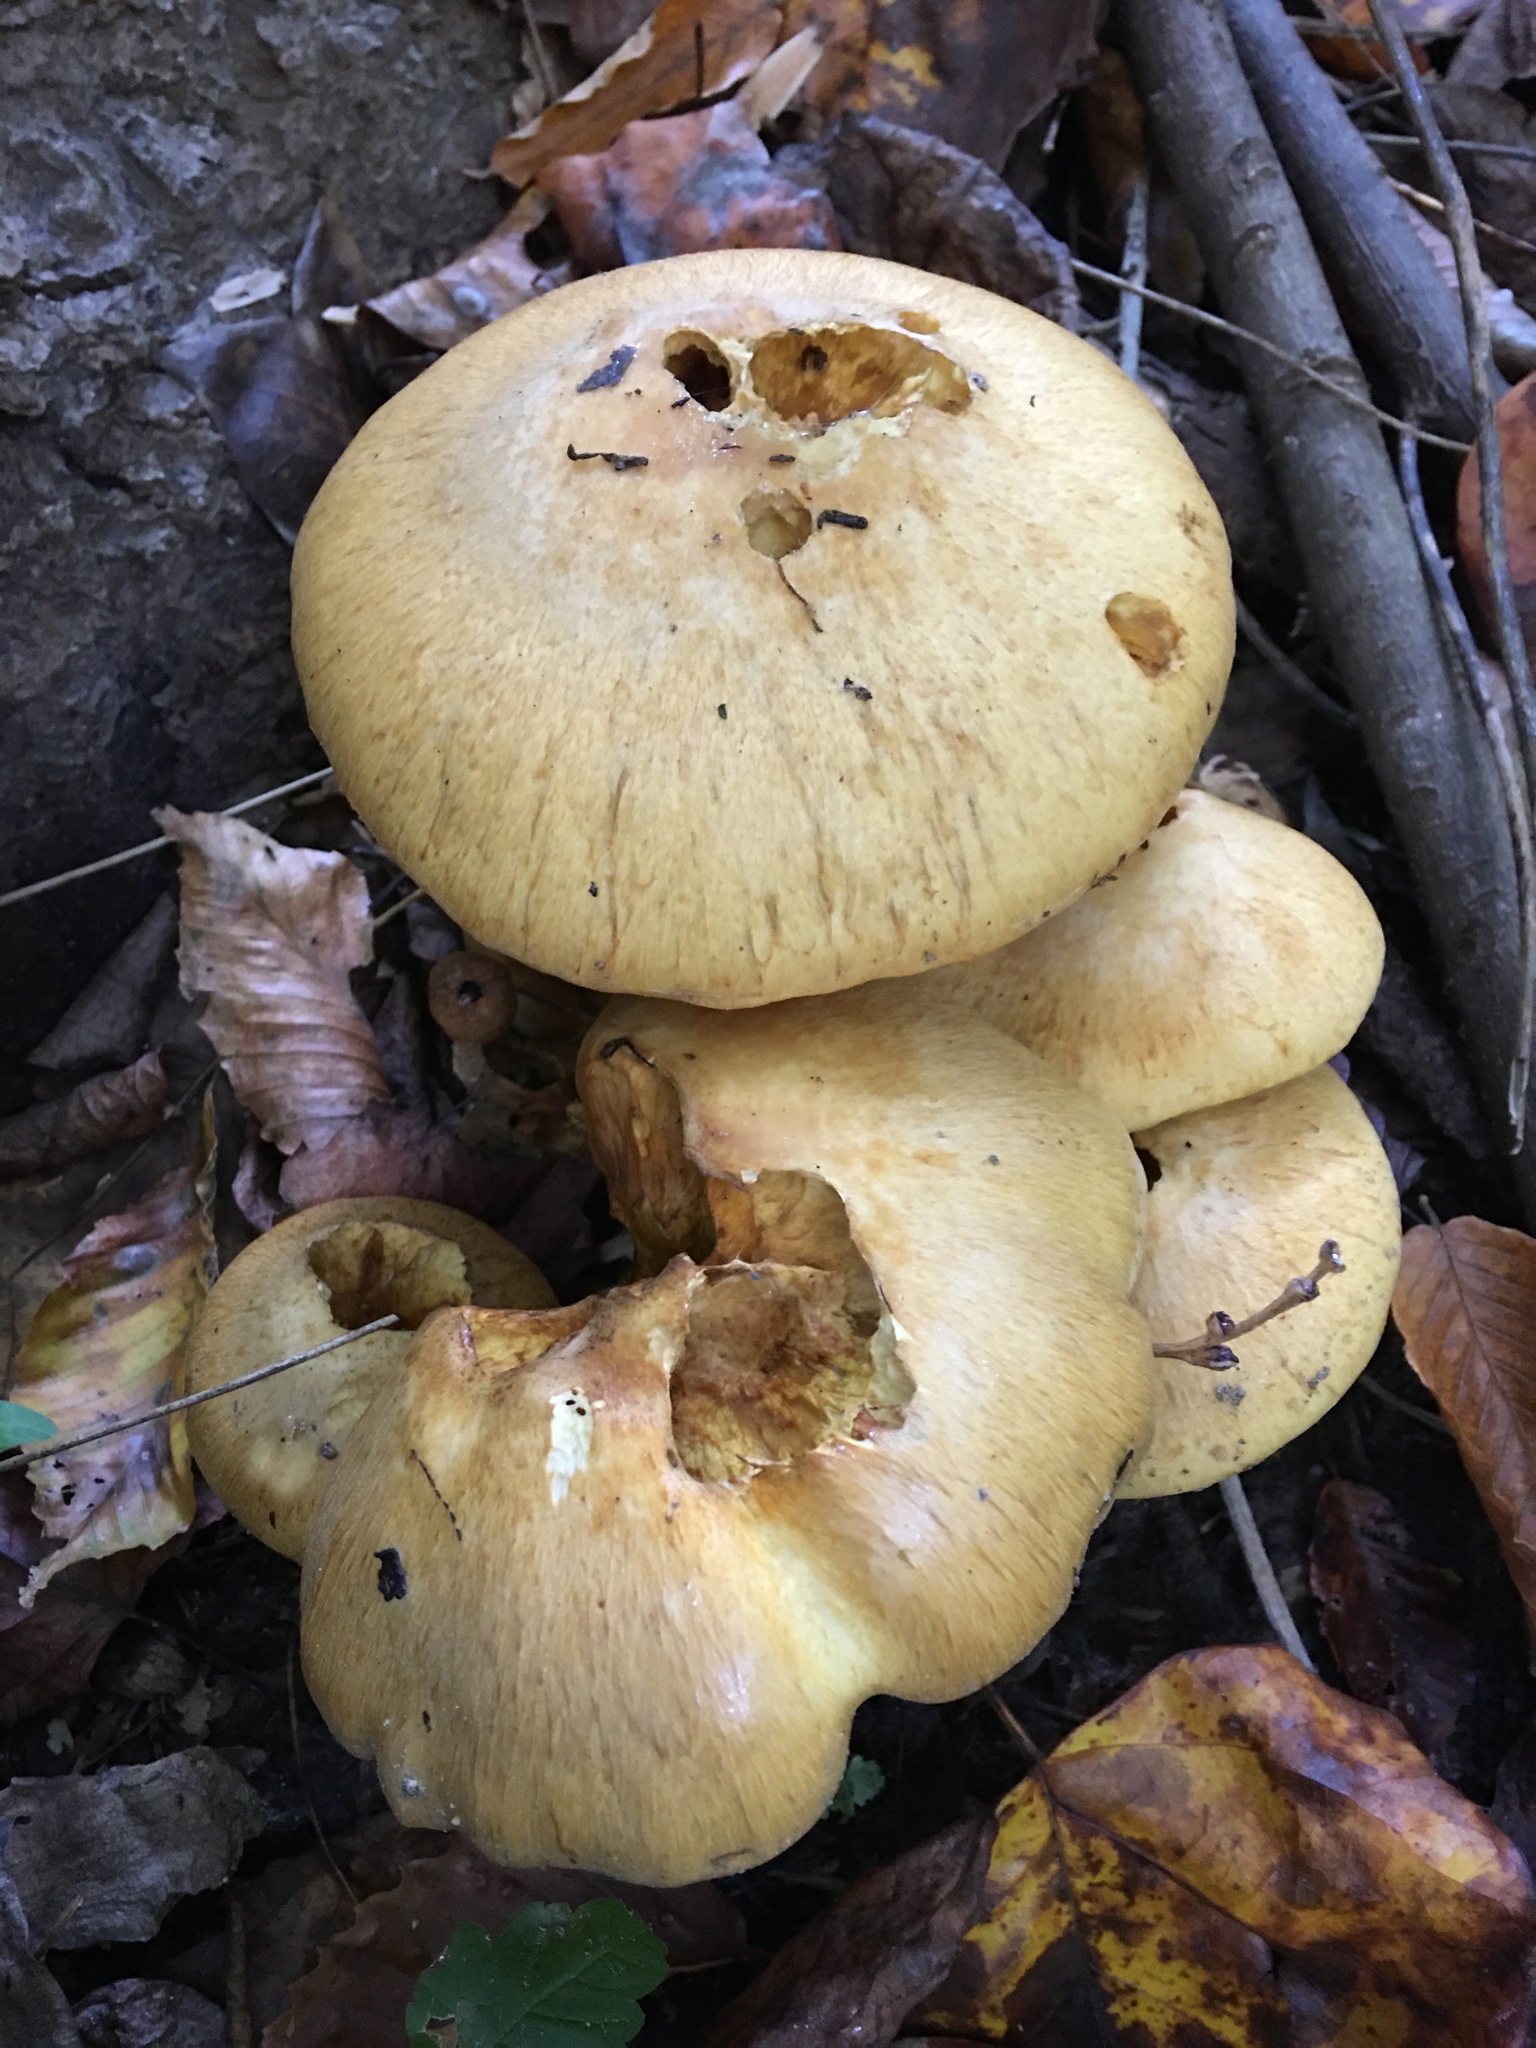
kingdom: Fungi
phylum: Basidiomycota
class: Agaricomycetes
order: Agaricales
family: Hymenogastraceae
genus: Gymnopilus
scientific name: Gymnopilus luteus
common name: Yellow gymnopilus
